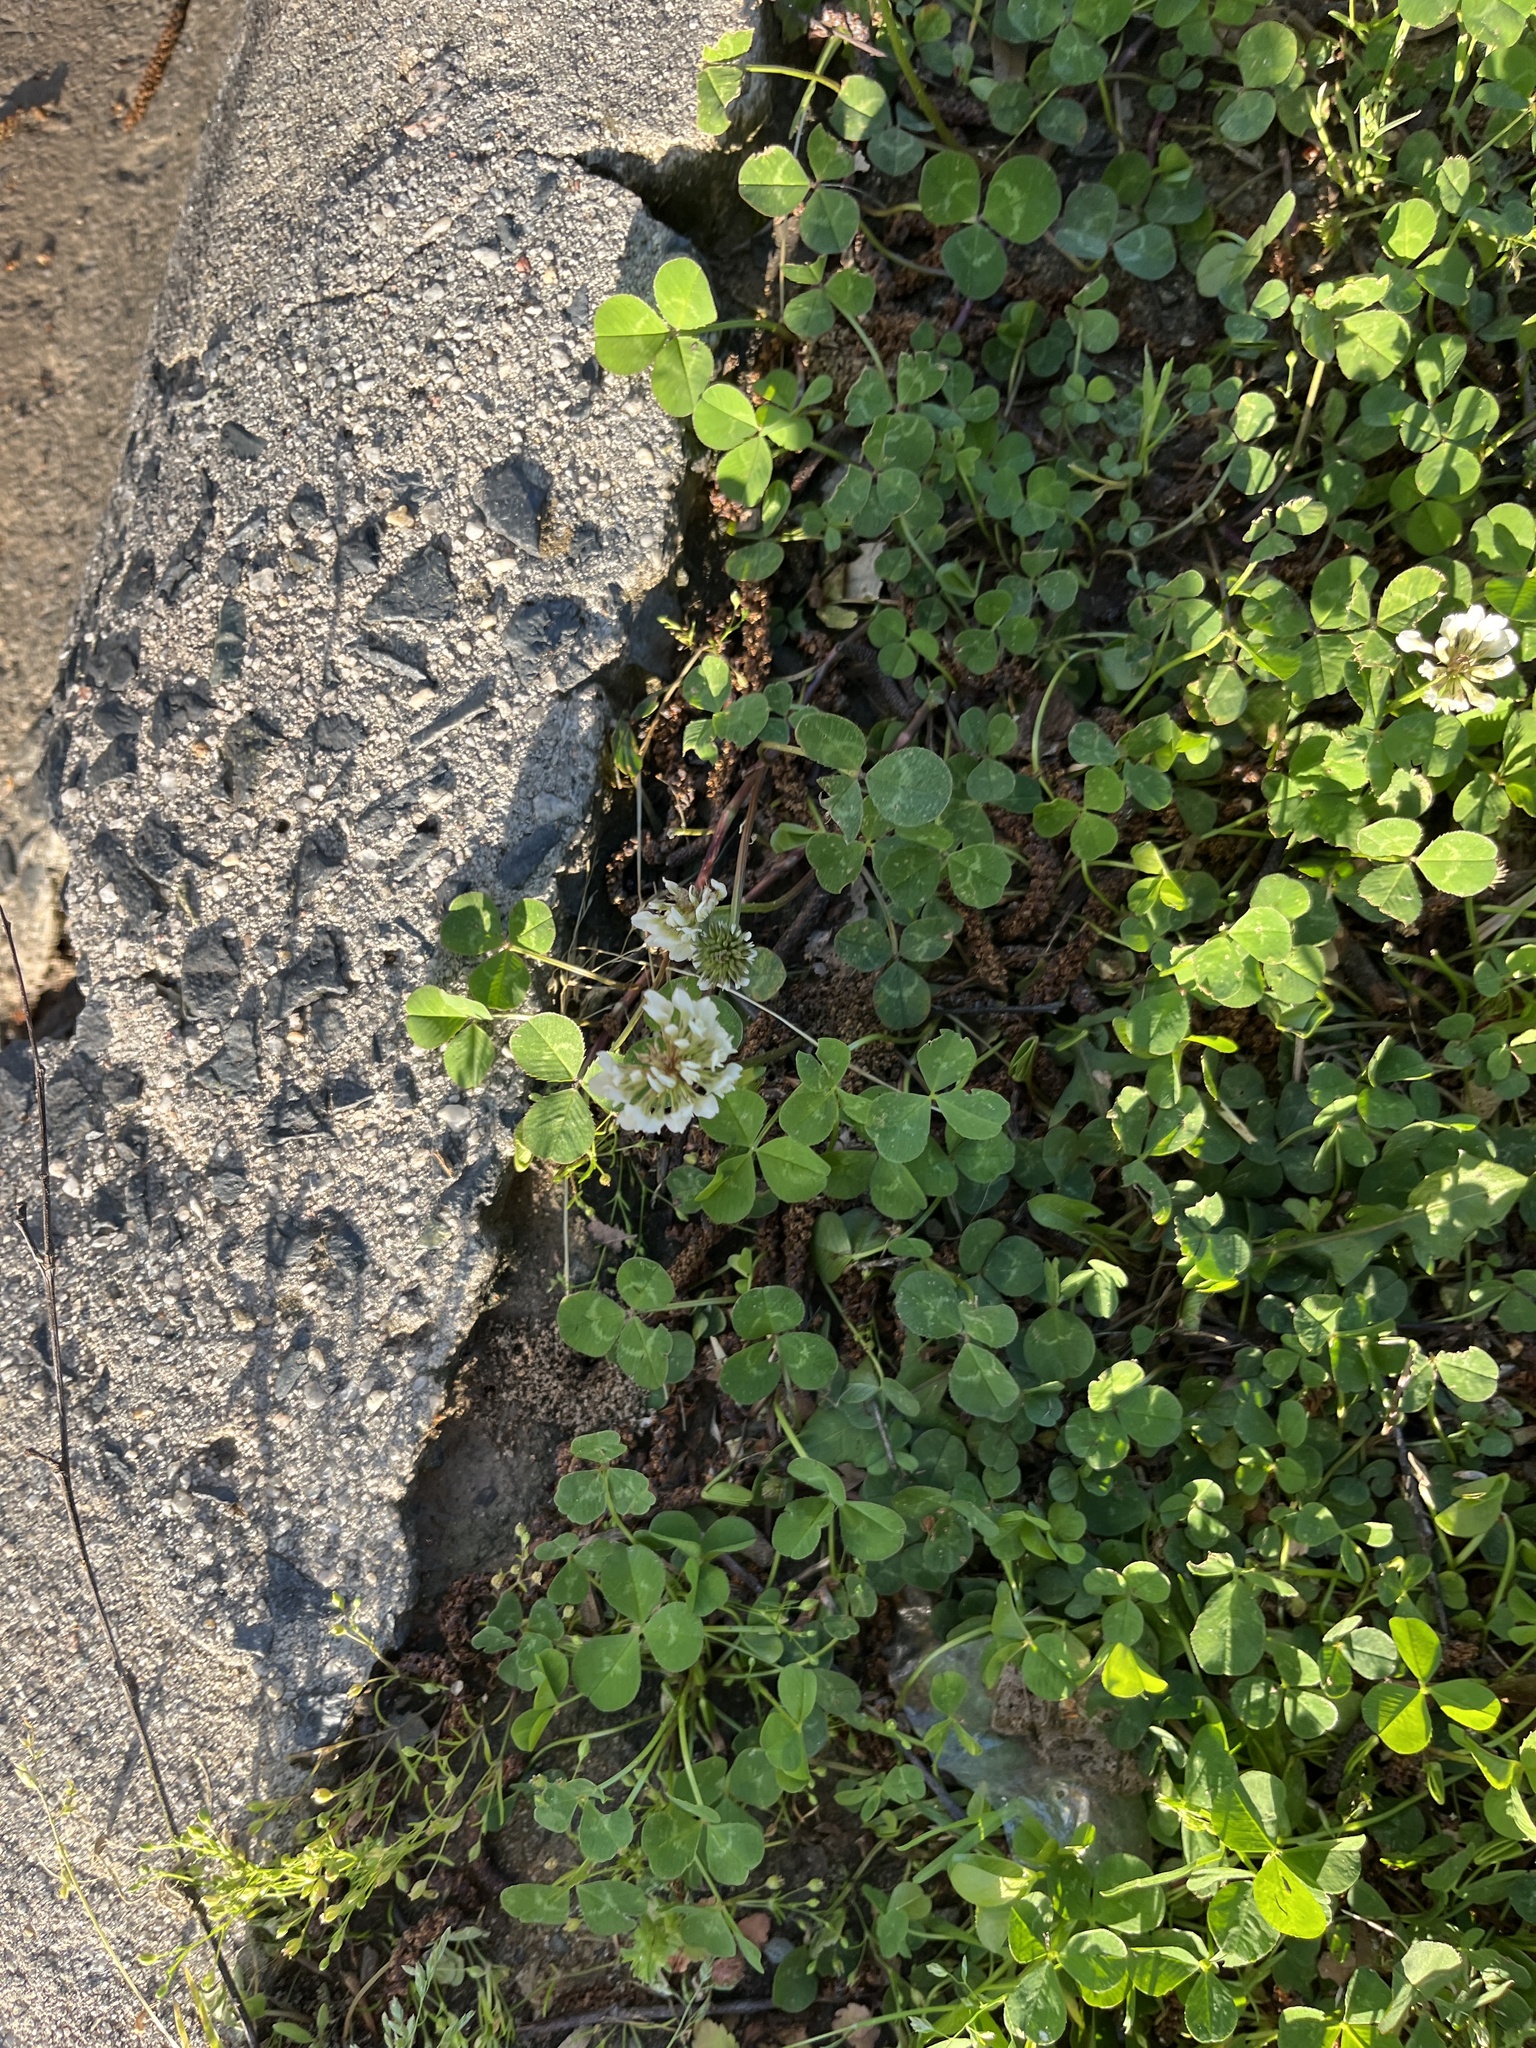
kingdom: Plantae
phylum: Tracheophyta
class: Magnoliopsida
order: Fabales
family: Fabaceae
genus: Trifolium
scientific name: Trifolium repens
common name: White clover
